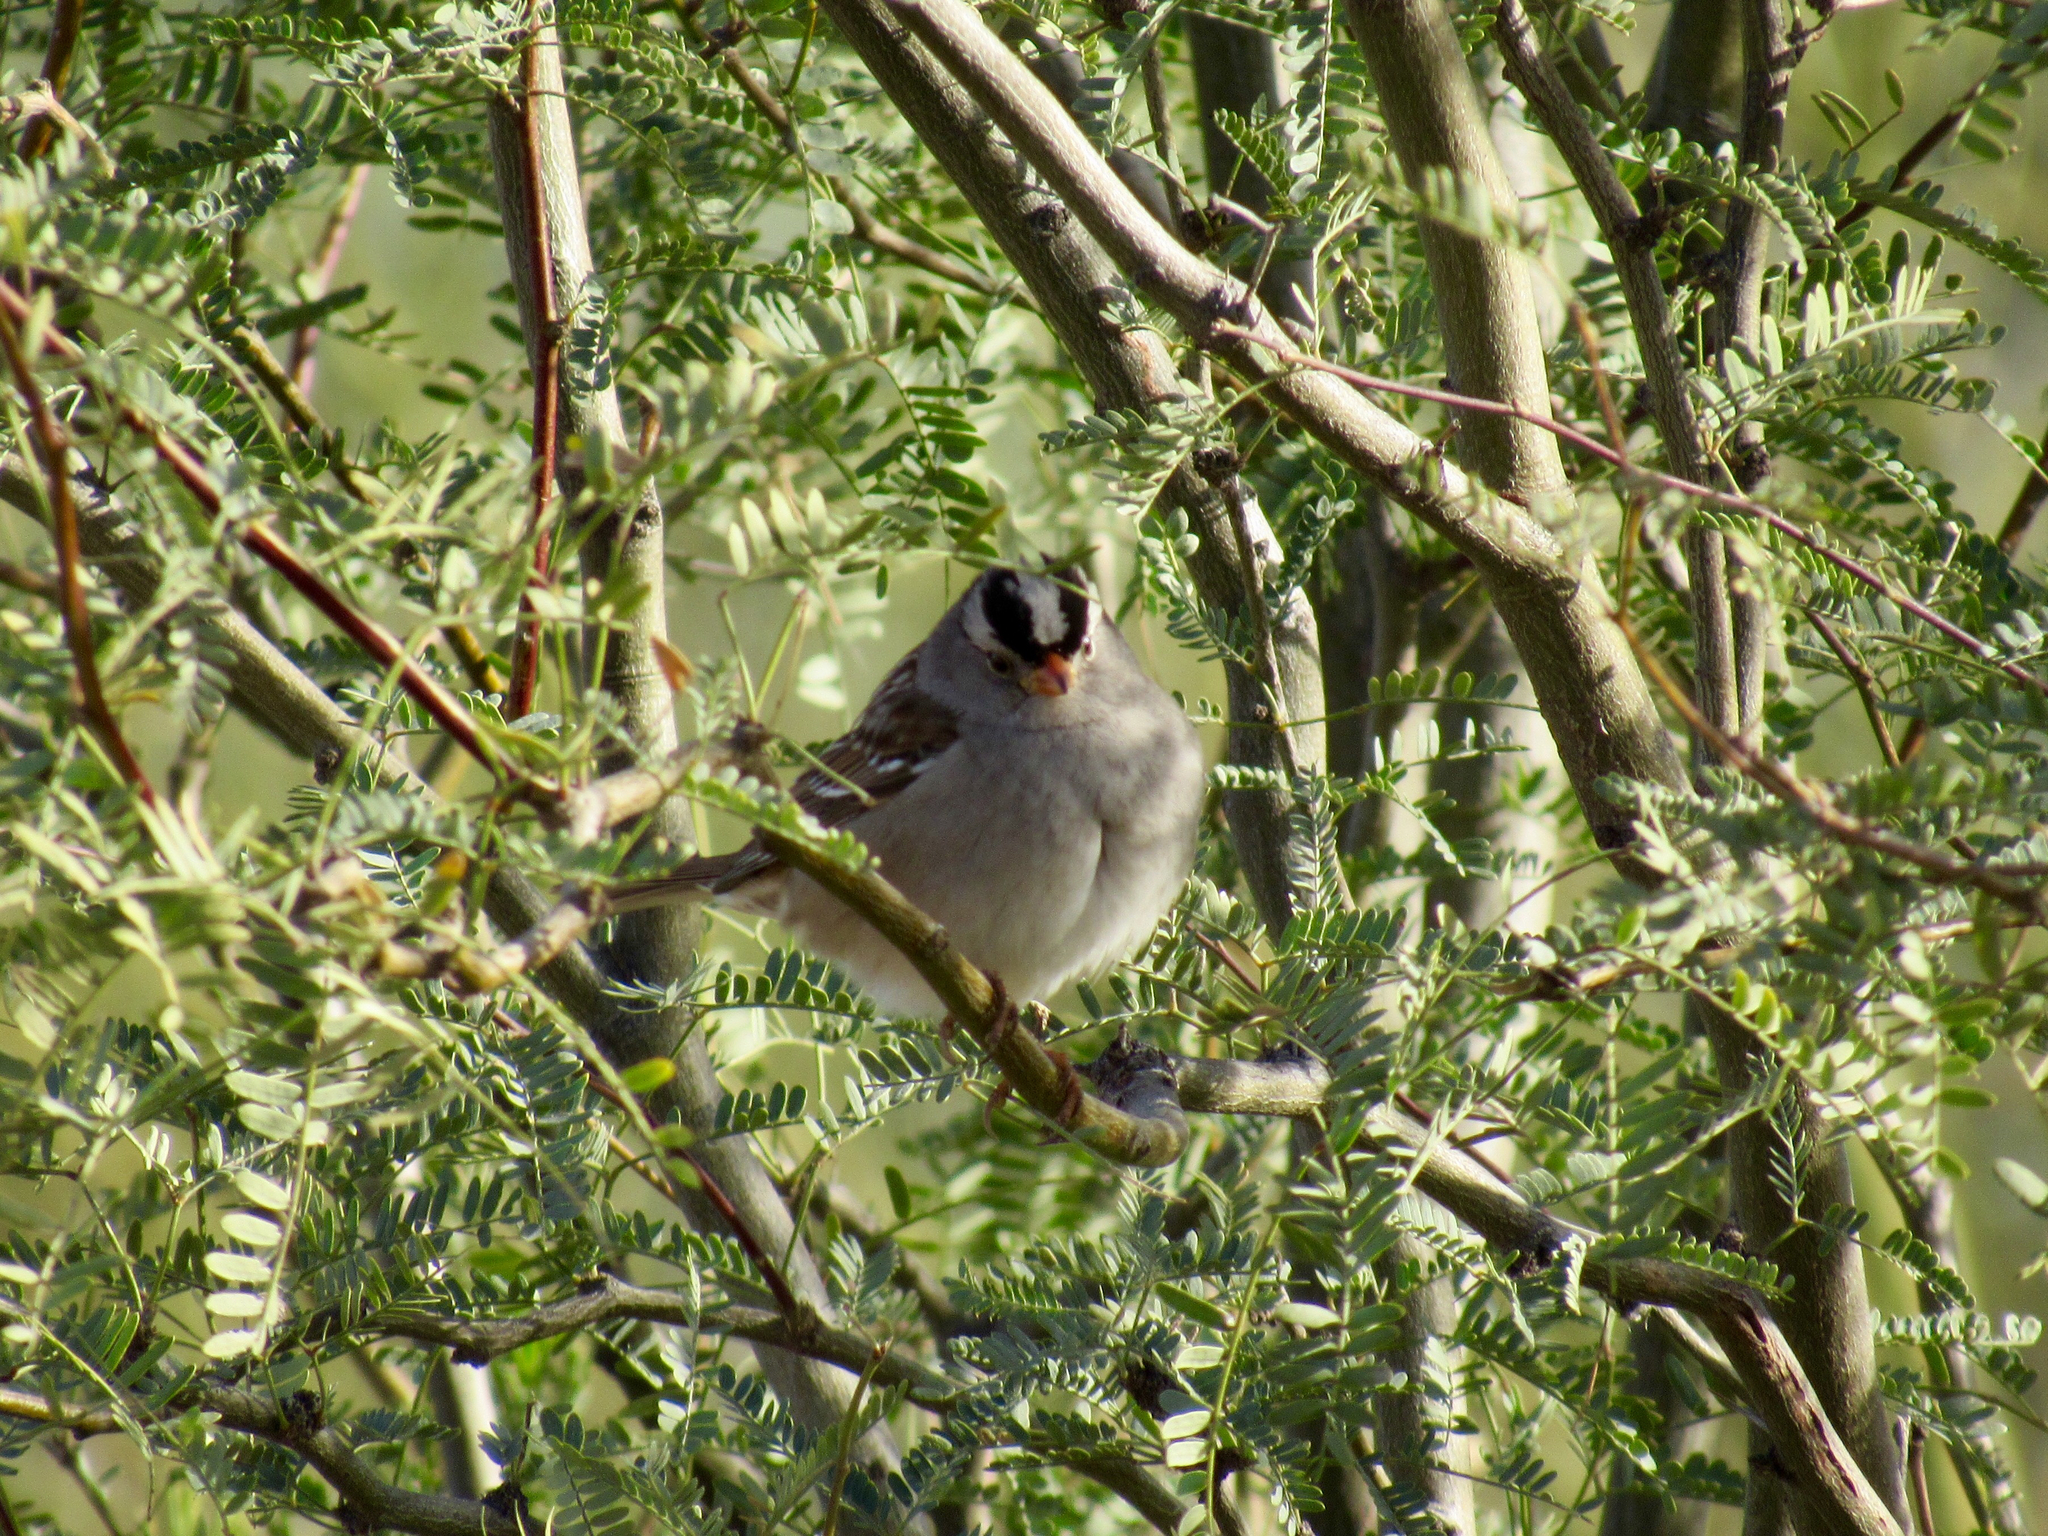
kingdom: Animalia
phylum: Chordata
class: Aves
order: Passeriformes
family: Passerellidae
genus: Zonotrichia
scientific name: Zonotrichia leucophrys
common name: White-crowned sparrow
